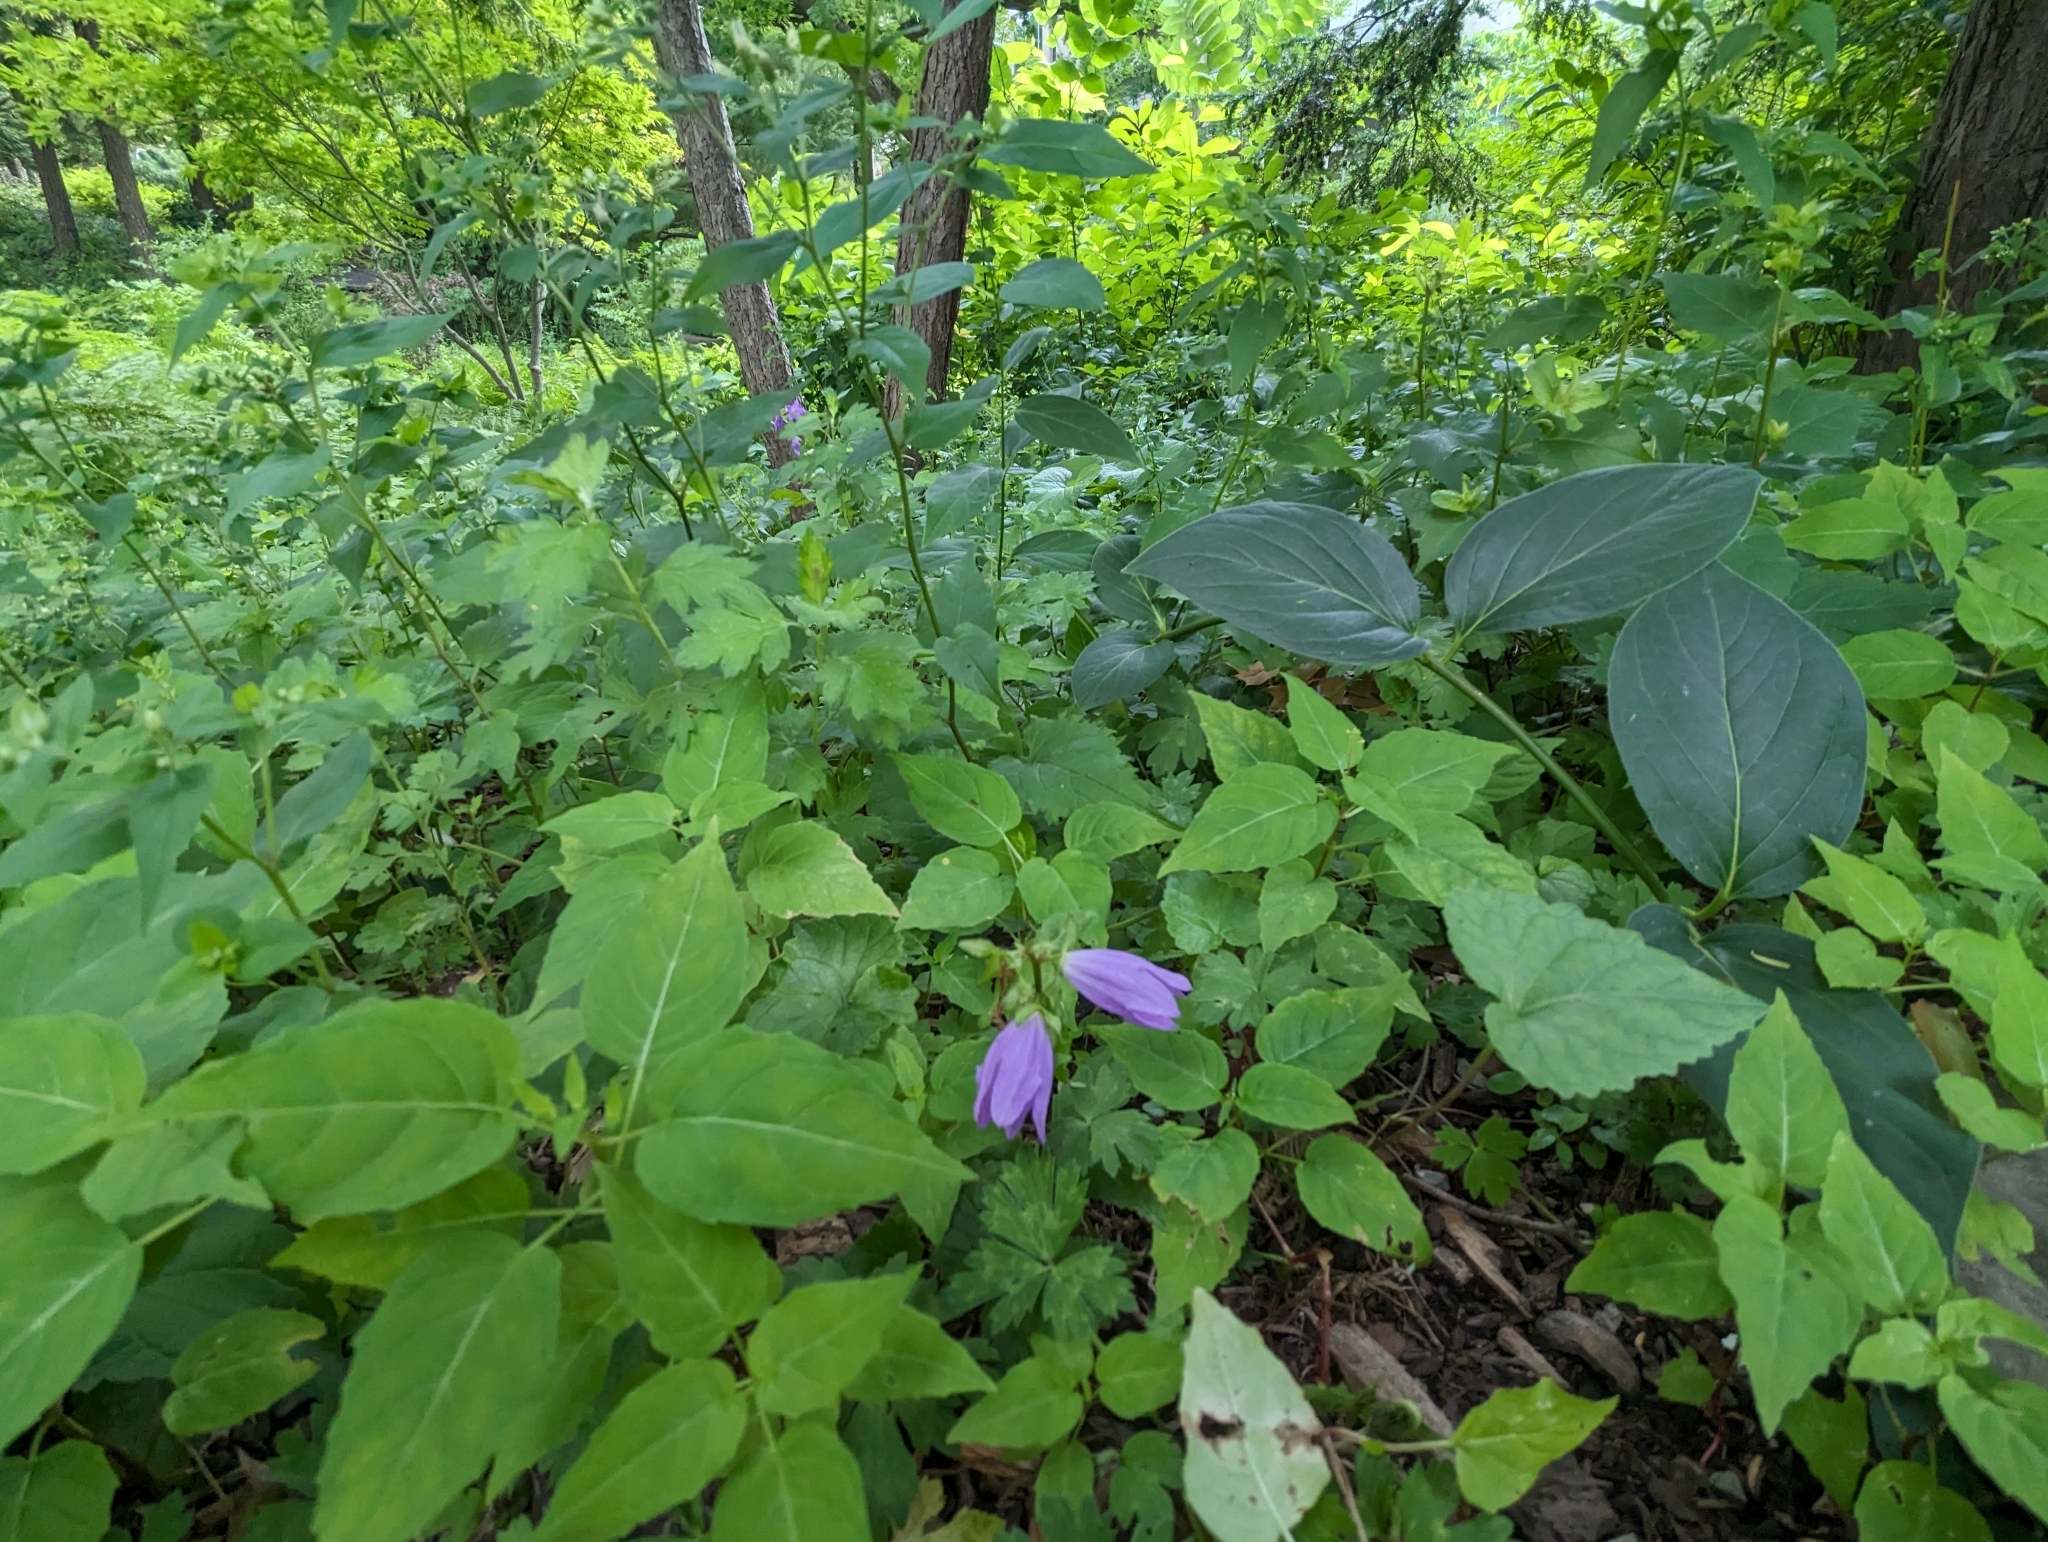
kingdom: Plantae
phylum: Tracheophyta
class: Magnoliopsida
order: Asterales
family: Campanulaceae
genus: Campanula
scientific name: Campanula rapunculoides
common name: Creeping bellflower
